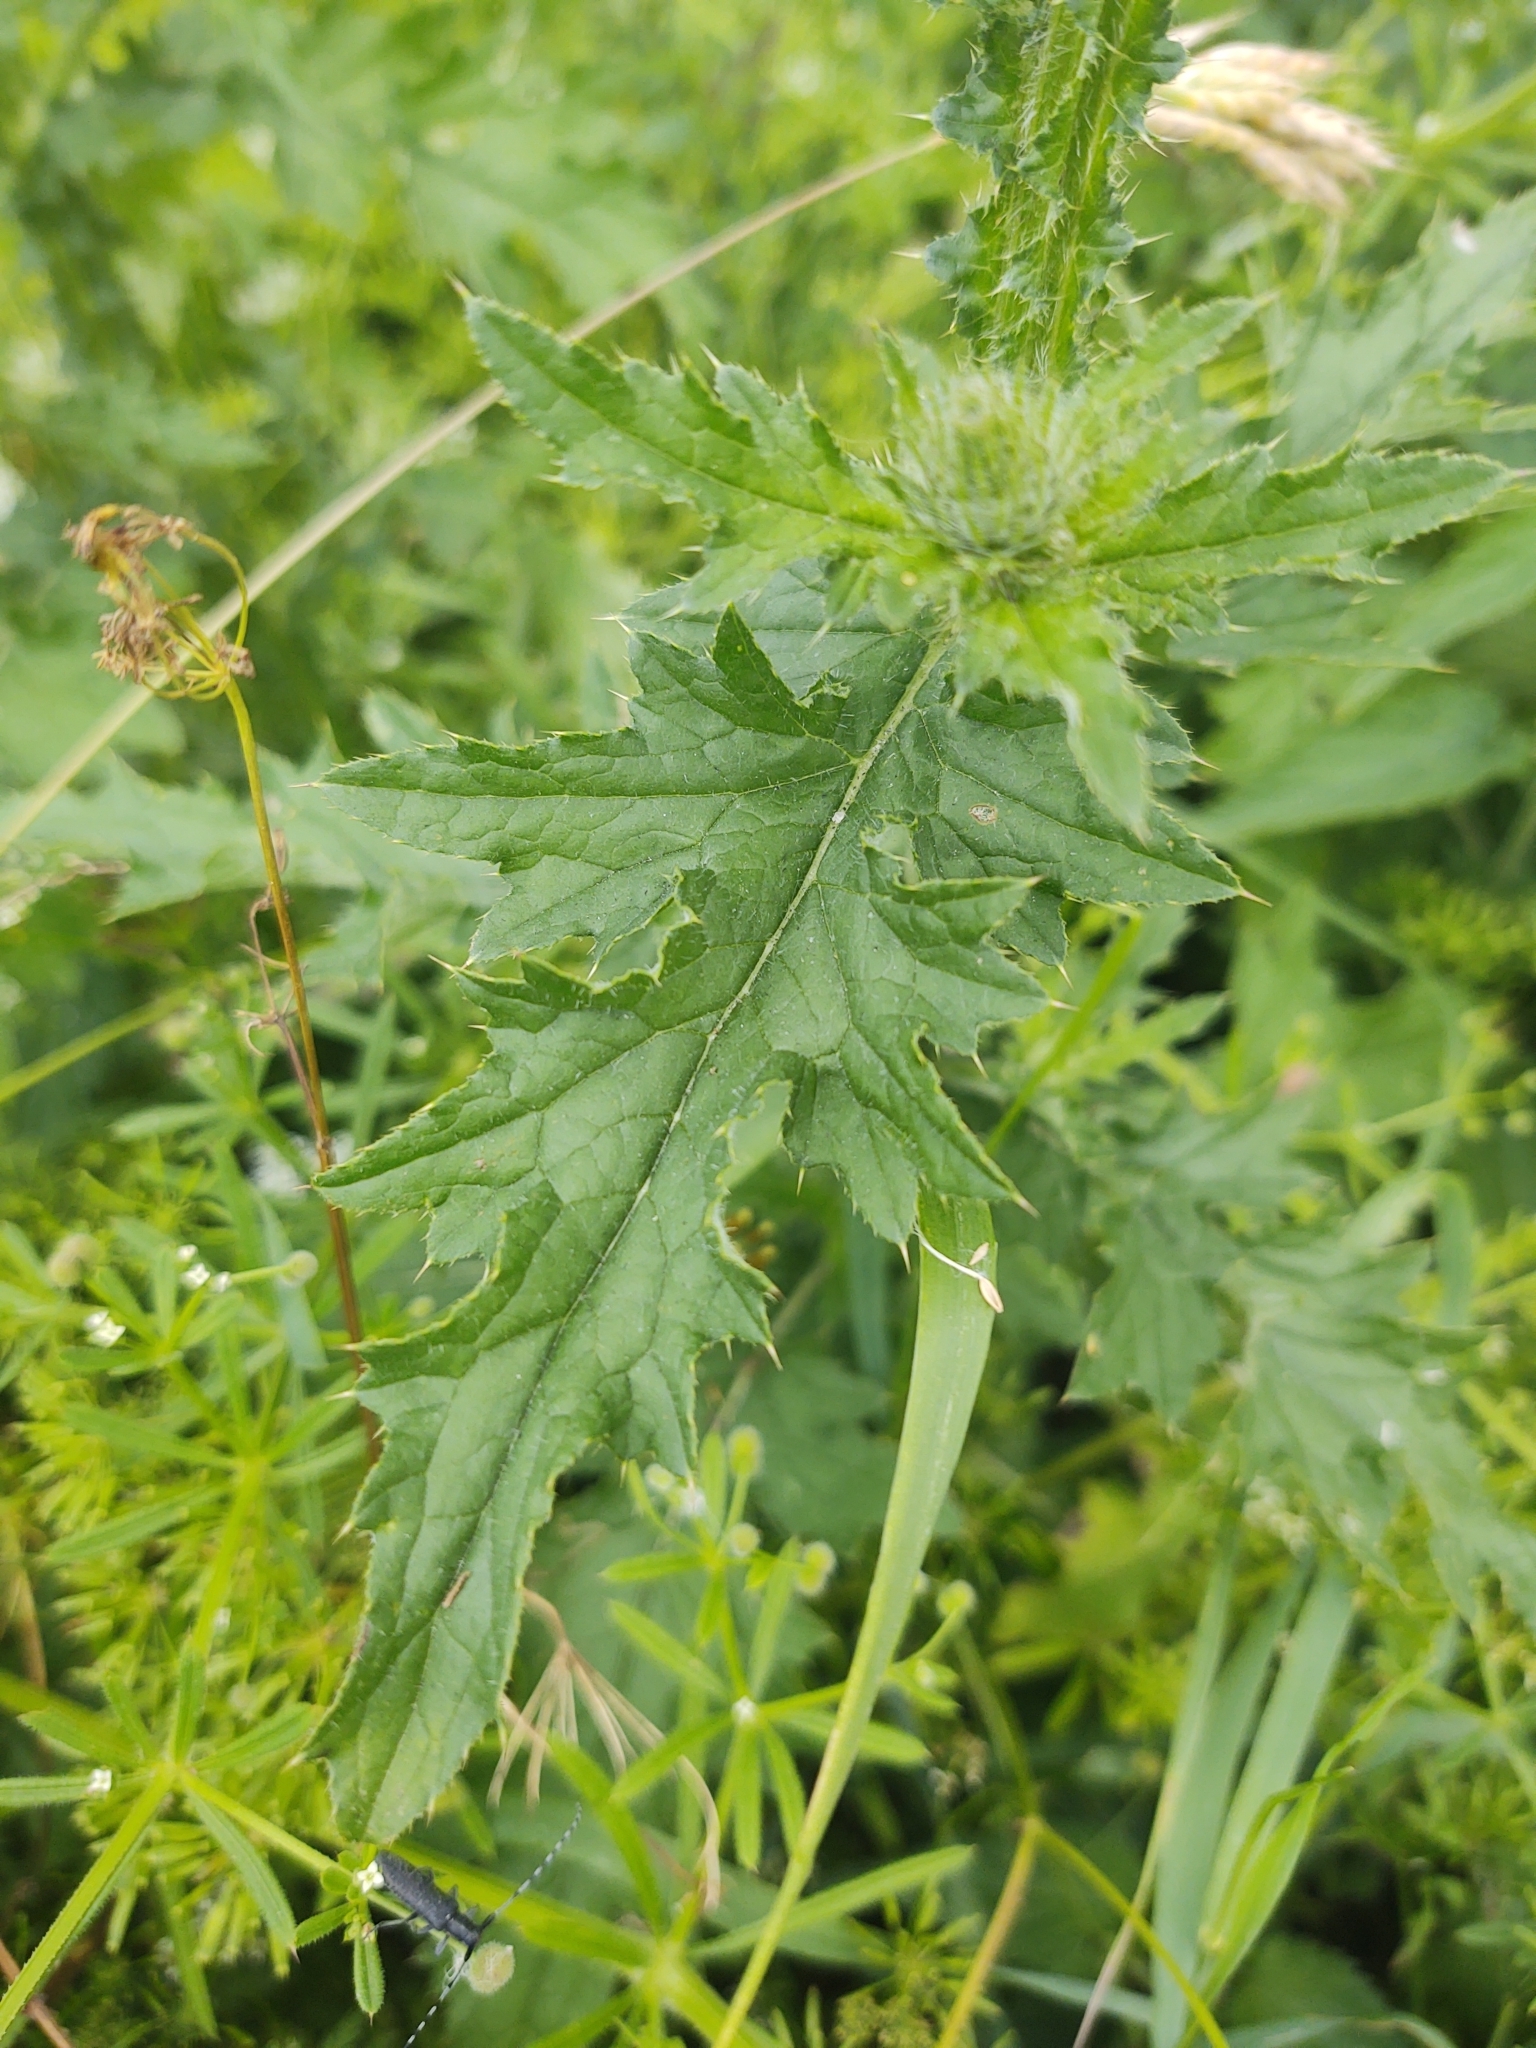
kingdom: Plantae
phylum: Tracheophyta
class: Magnoliopsida
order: Asterales
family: Asteraceae
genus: Carduus
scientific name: Carduus crispus
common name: Welted thistle
